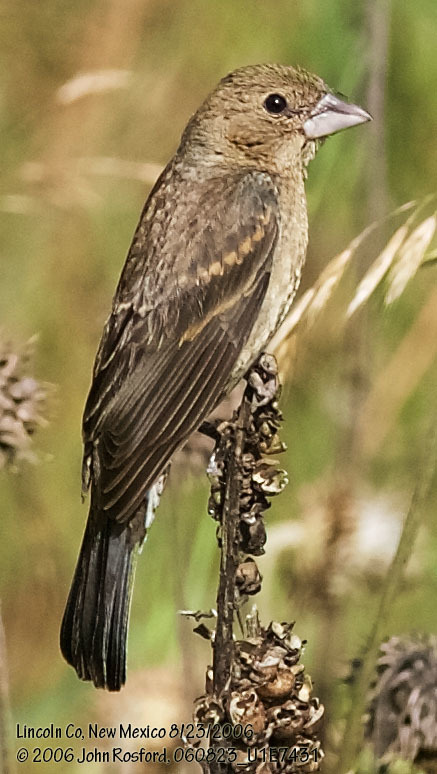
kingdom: Animalia
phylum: Chordata
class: Aves
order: Passeriformes
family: Cardinalidae
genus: Passerina
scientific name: Passerina caerulea
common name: Blue grosbeak
